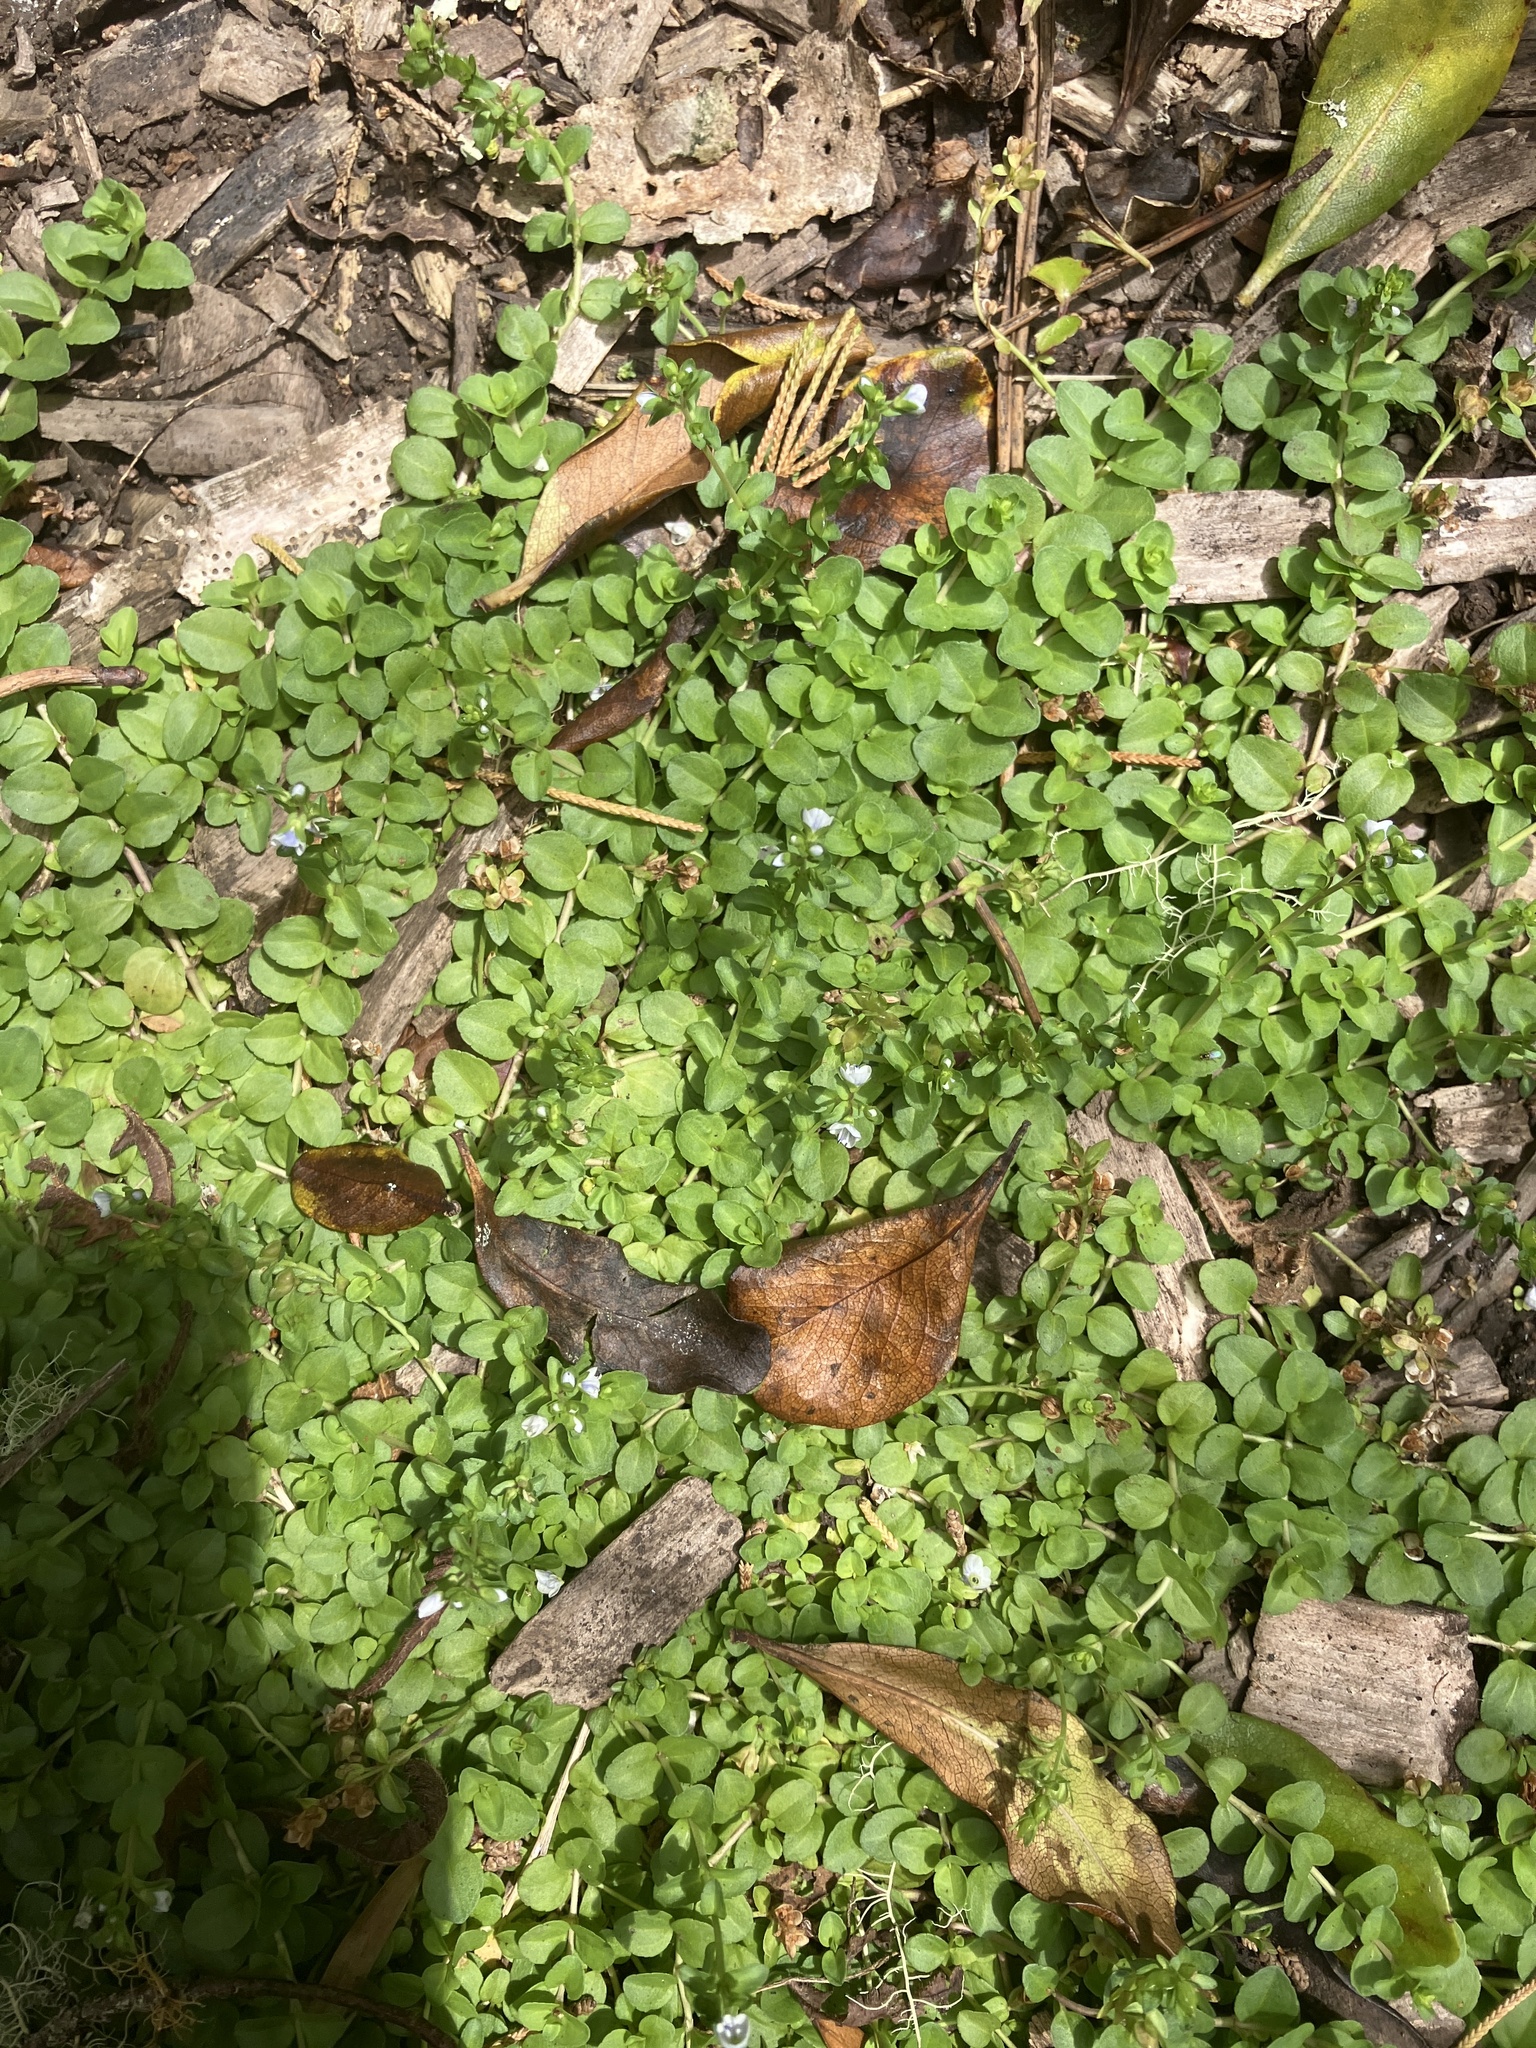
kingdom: Plantae
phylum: Tracheophyta
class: Magnoliopsida
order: Lamiales
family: Plantaginaceae
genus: Veronica
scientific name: Veronica serpyllifolia
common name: Thyme-leaved speedwell
